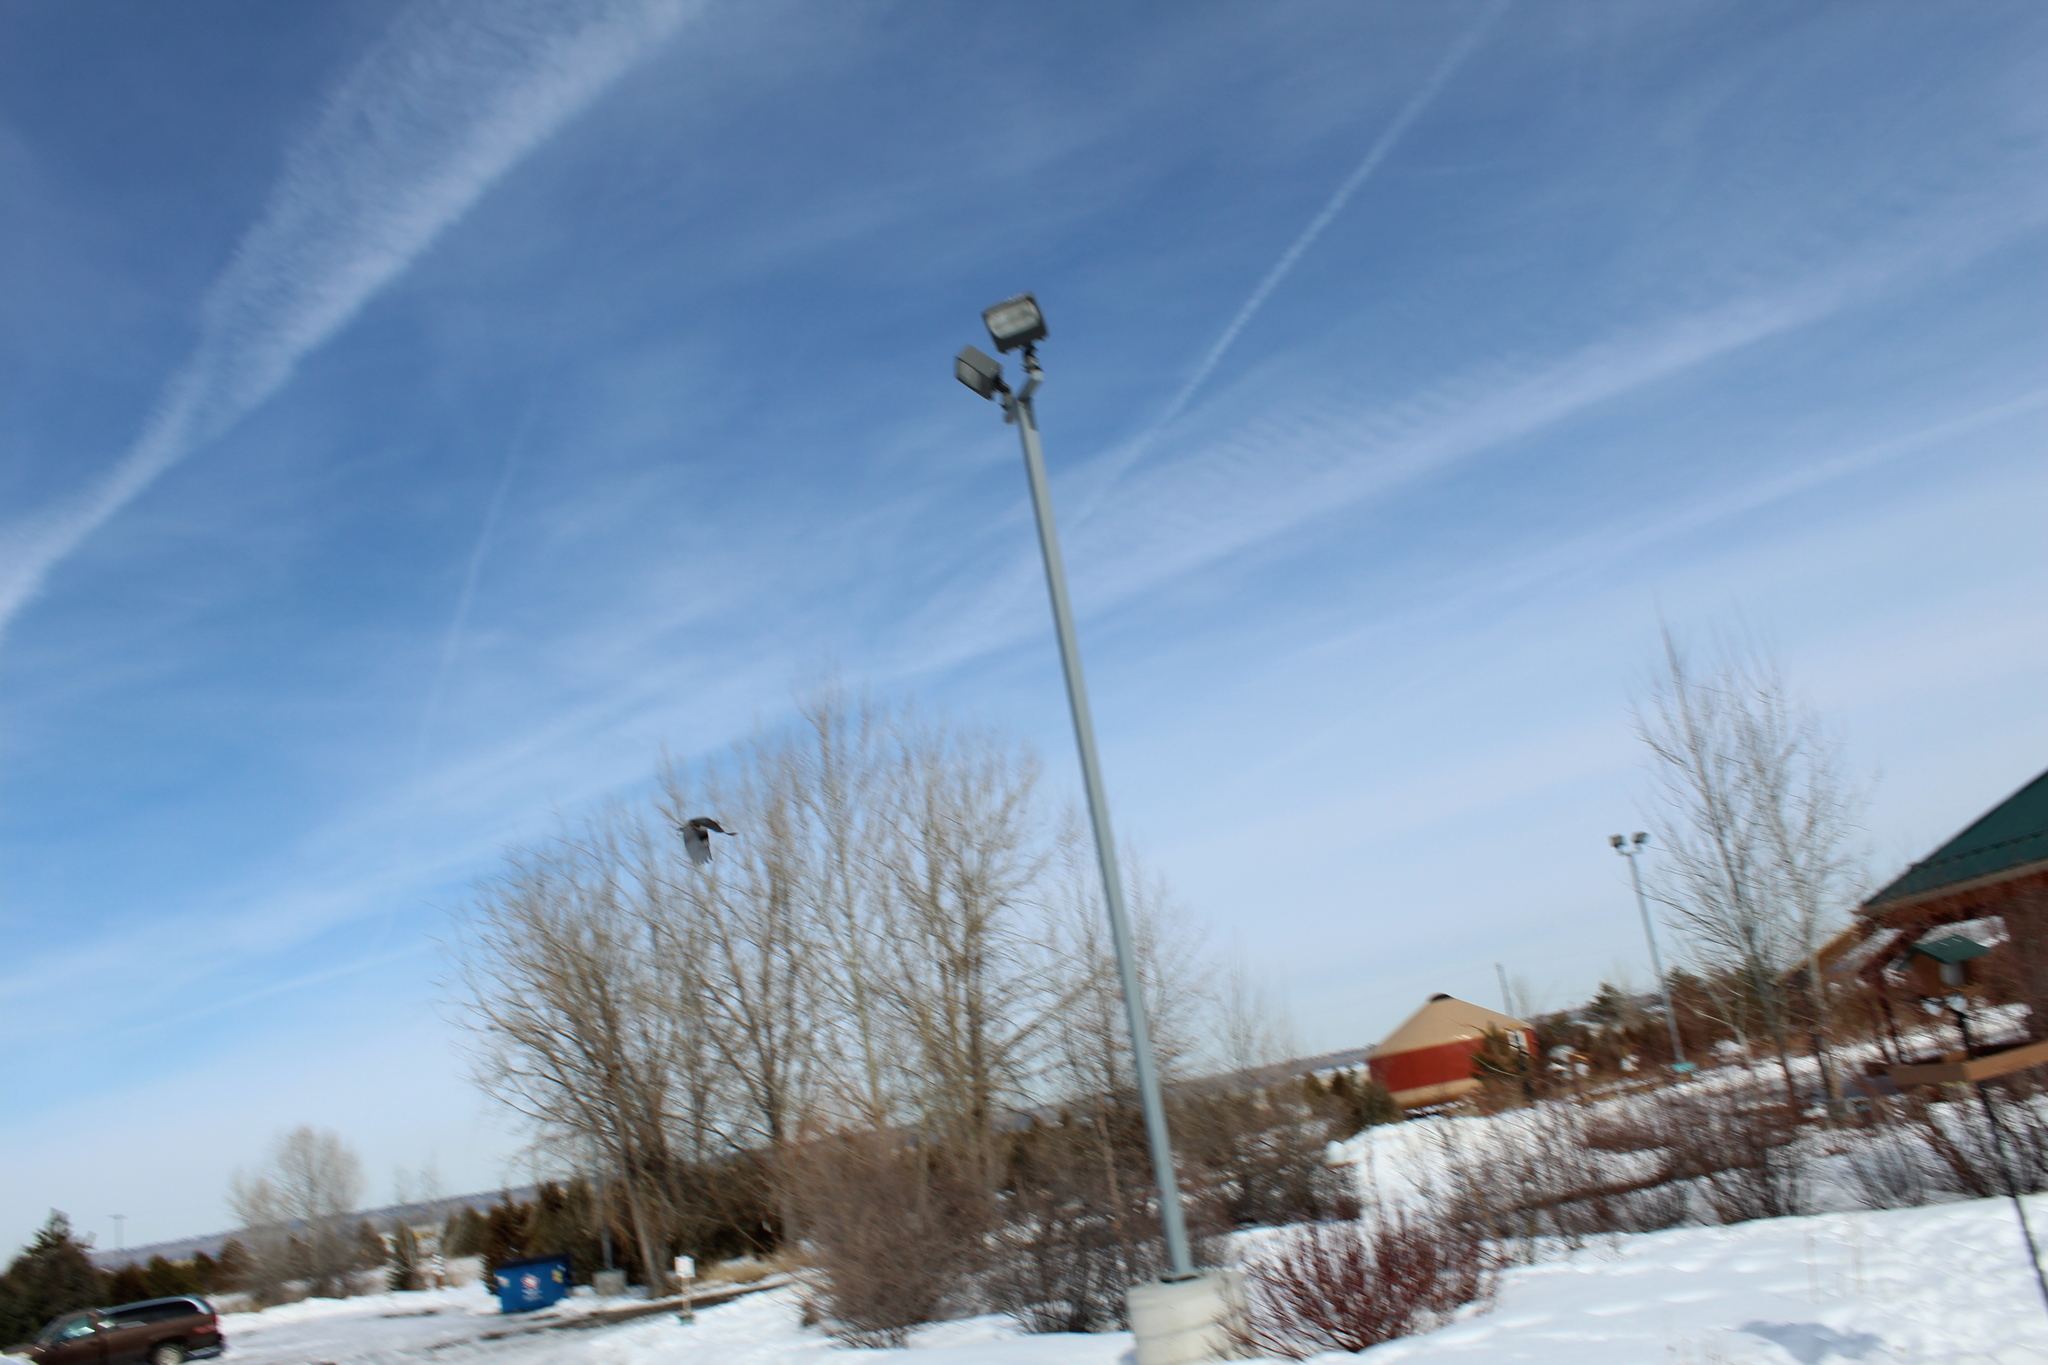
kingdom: Animalia
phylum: Chordata
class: Aves
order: Passeriformes
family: Sittidae
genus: Sitta
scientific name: Sitta carolinensis
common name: White-breasted nuthatch
